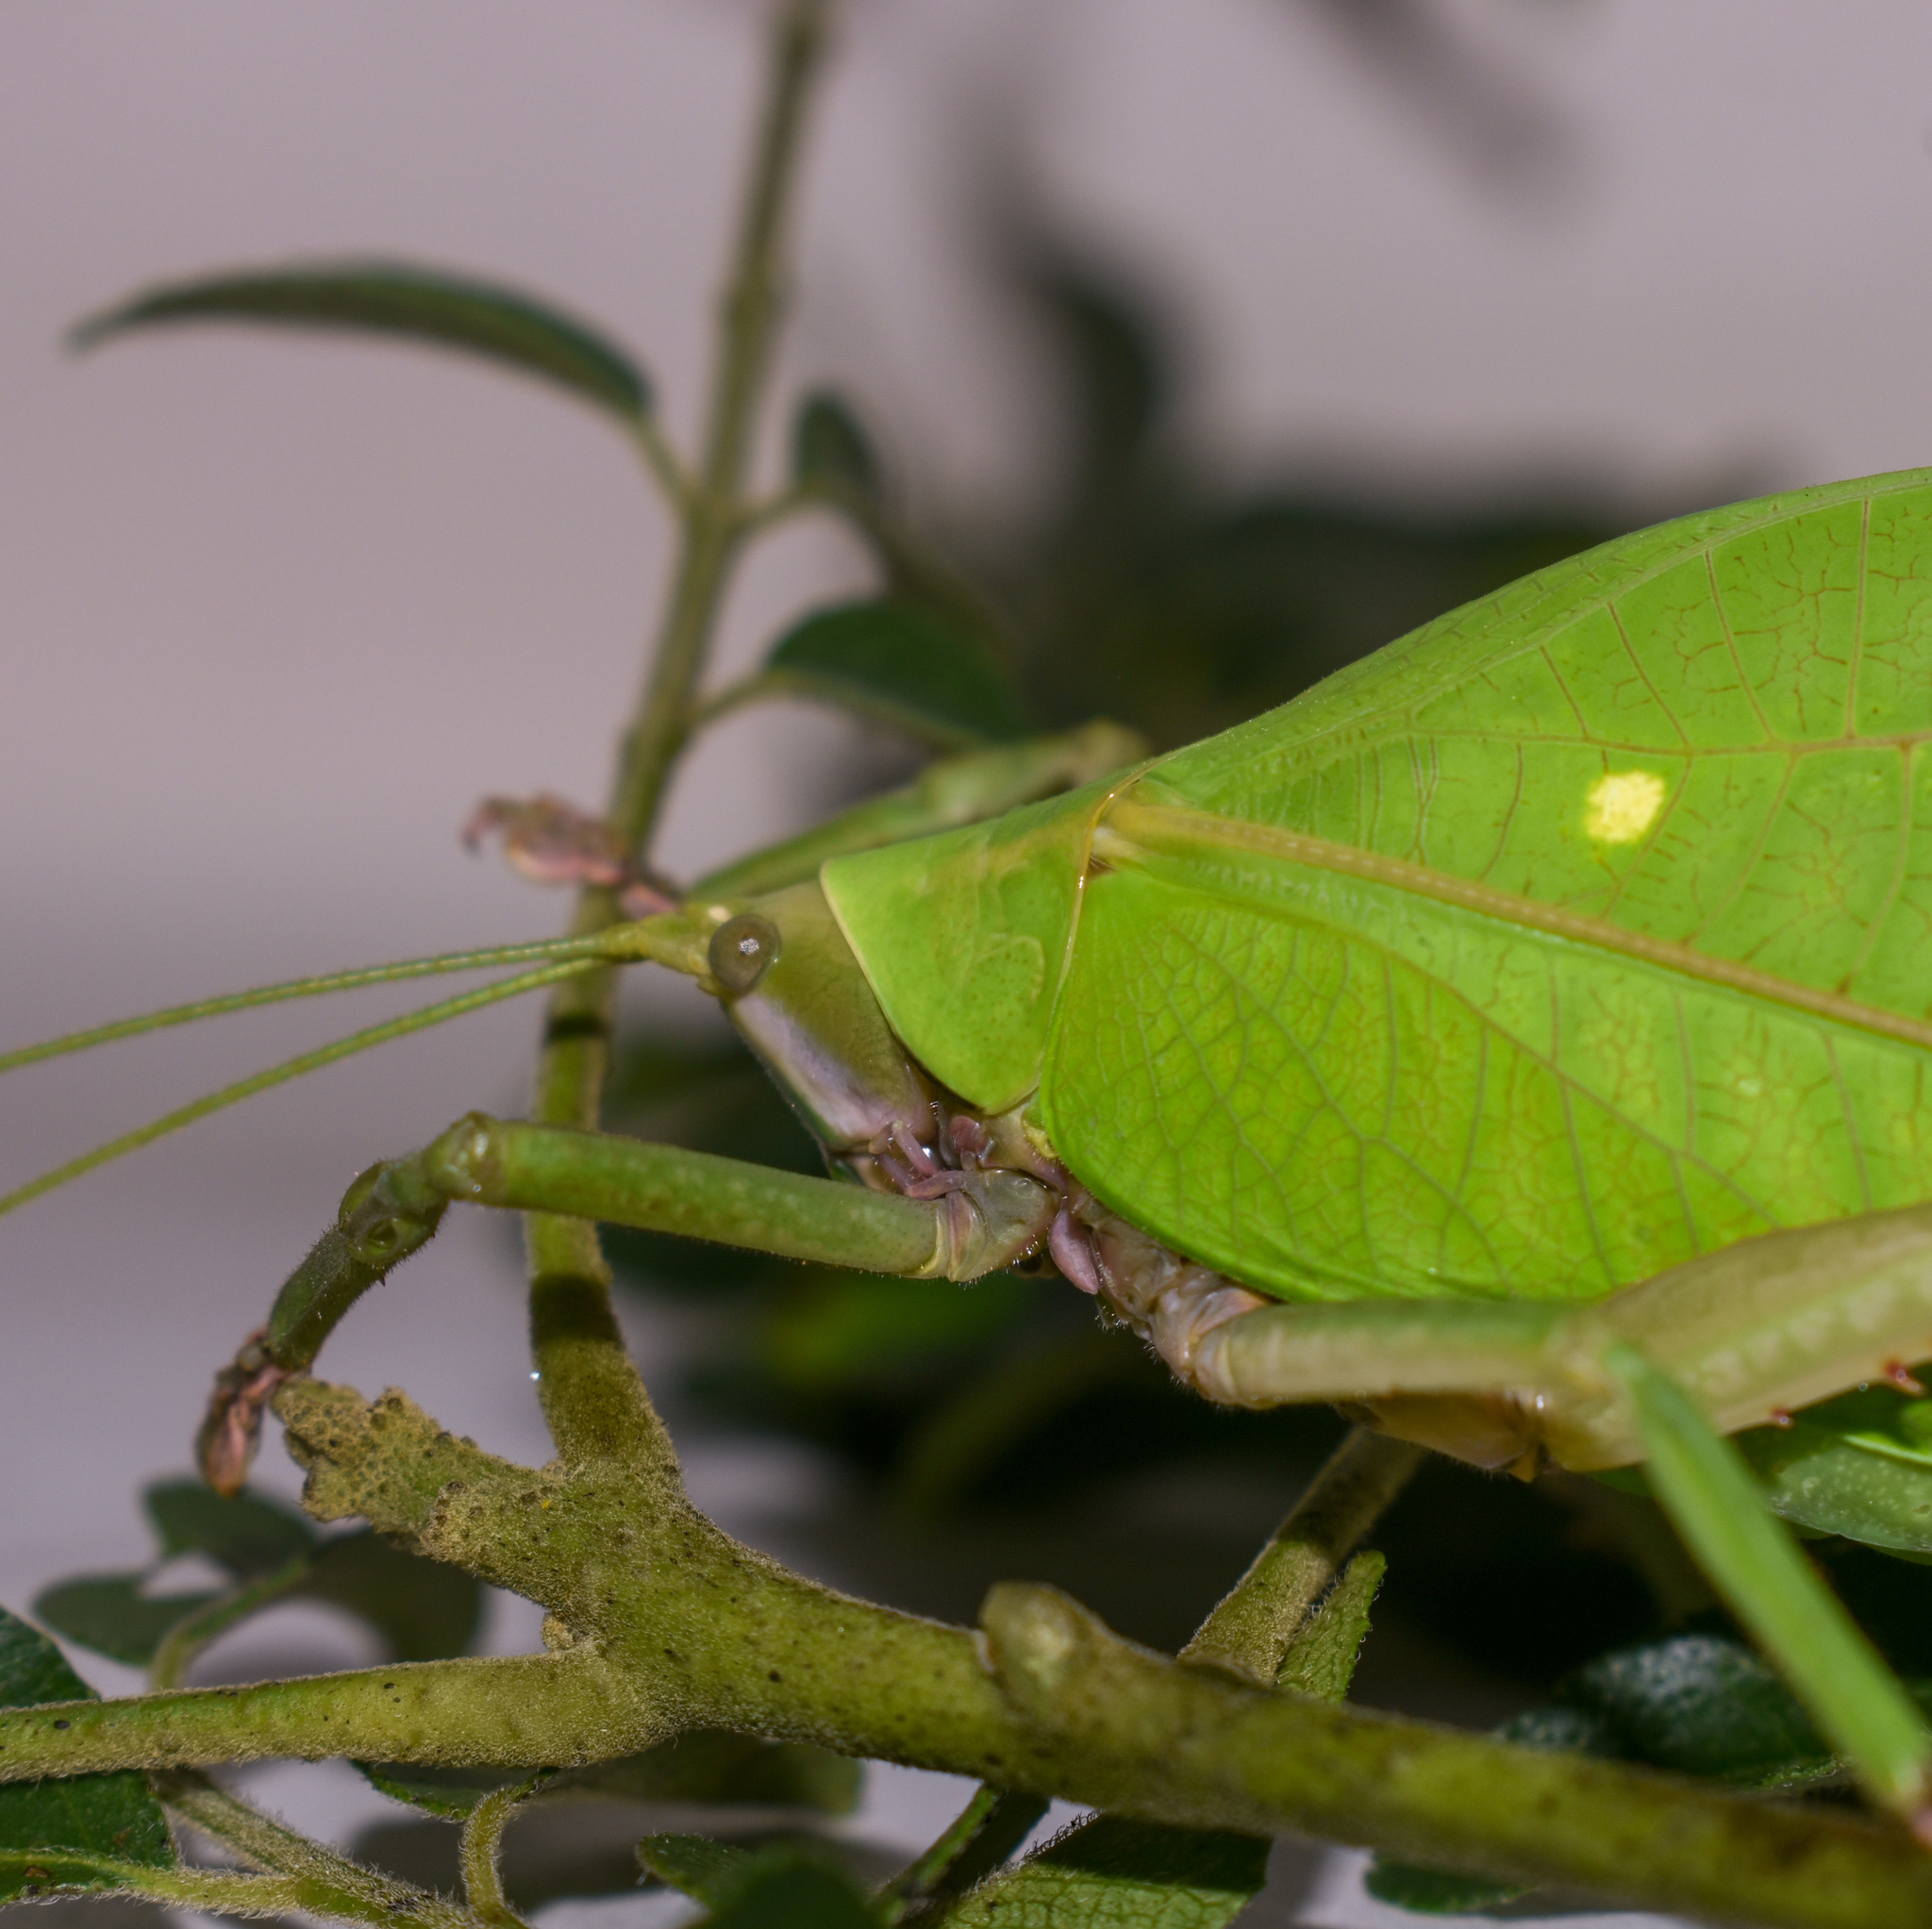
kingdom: Animalia
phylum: Arthropoda
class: Insecta
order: Orthoptera
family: Tettigoniidae
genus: Onomarchus
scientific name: Onomarchus uninotatus
